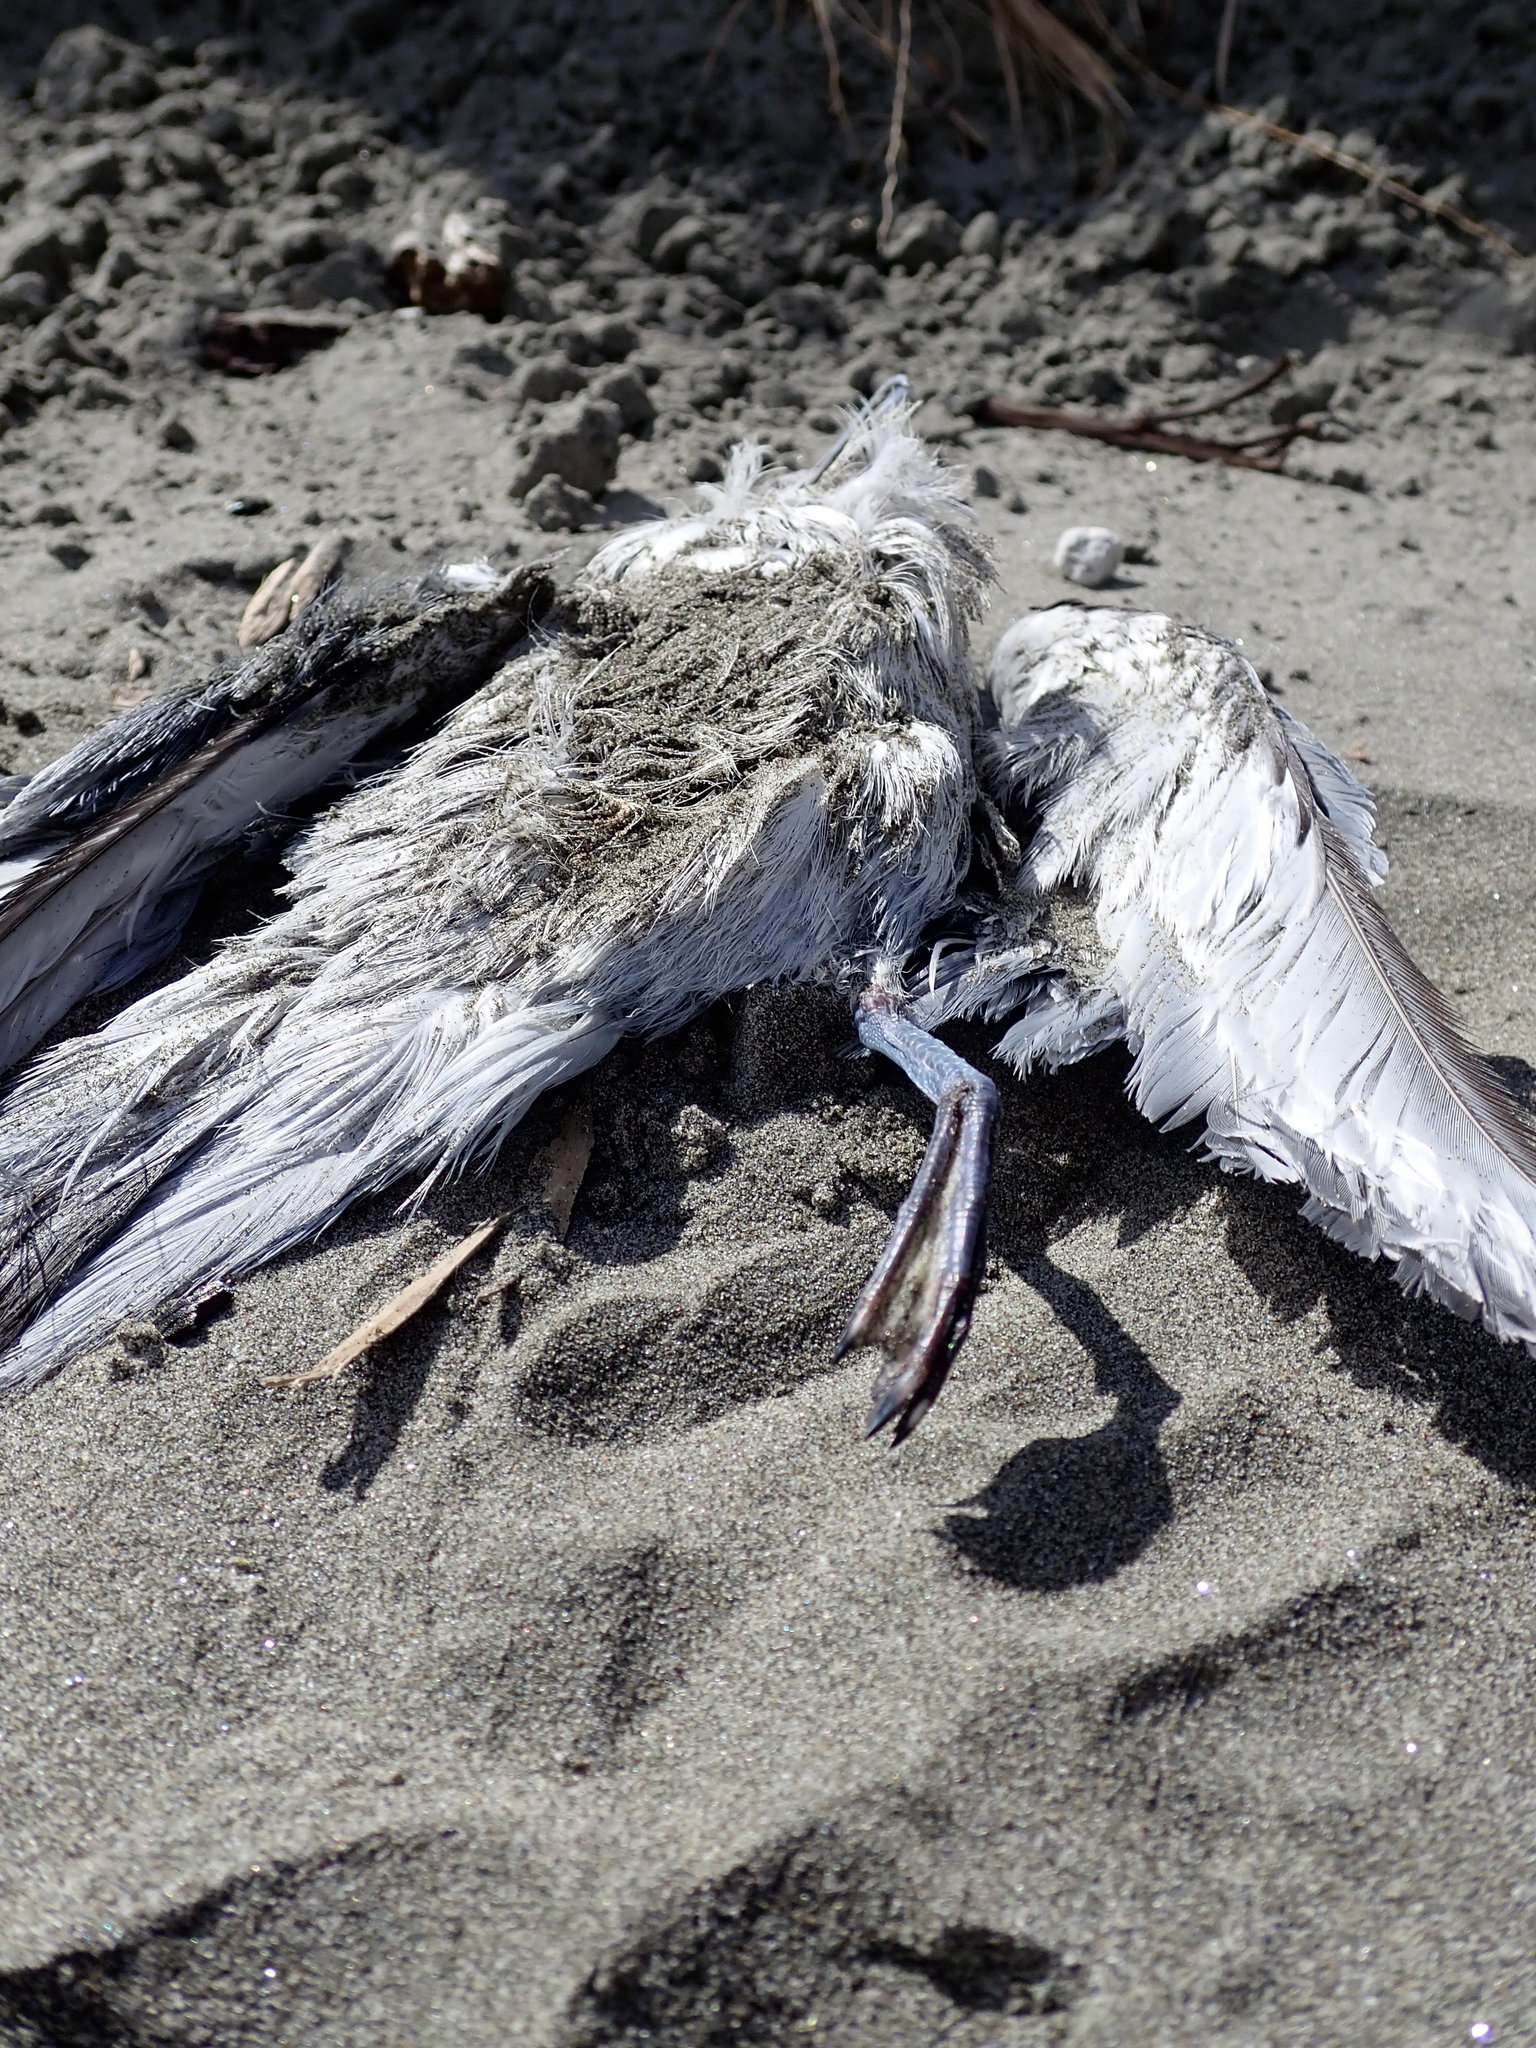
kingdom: Animalia
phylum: Chordata
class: Aves
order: Procellariiformes
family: Procellariidae
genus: Pachyptila
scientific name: Pachyptila turtur
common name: Fairy prion
